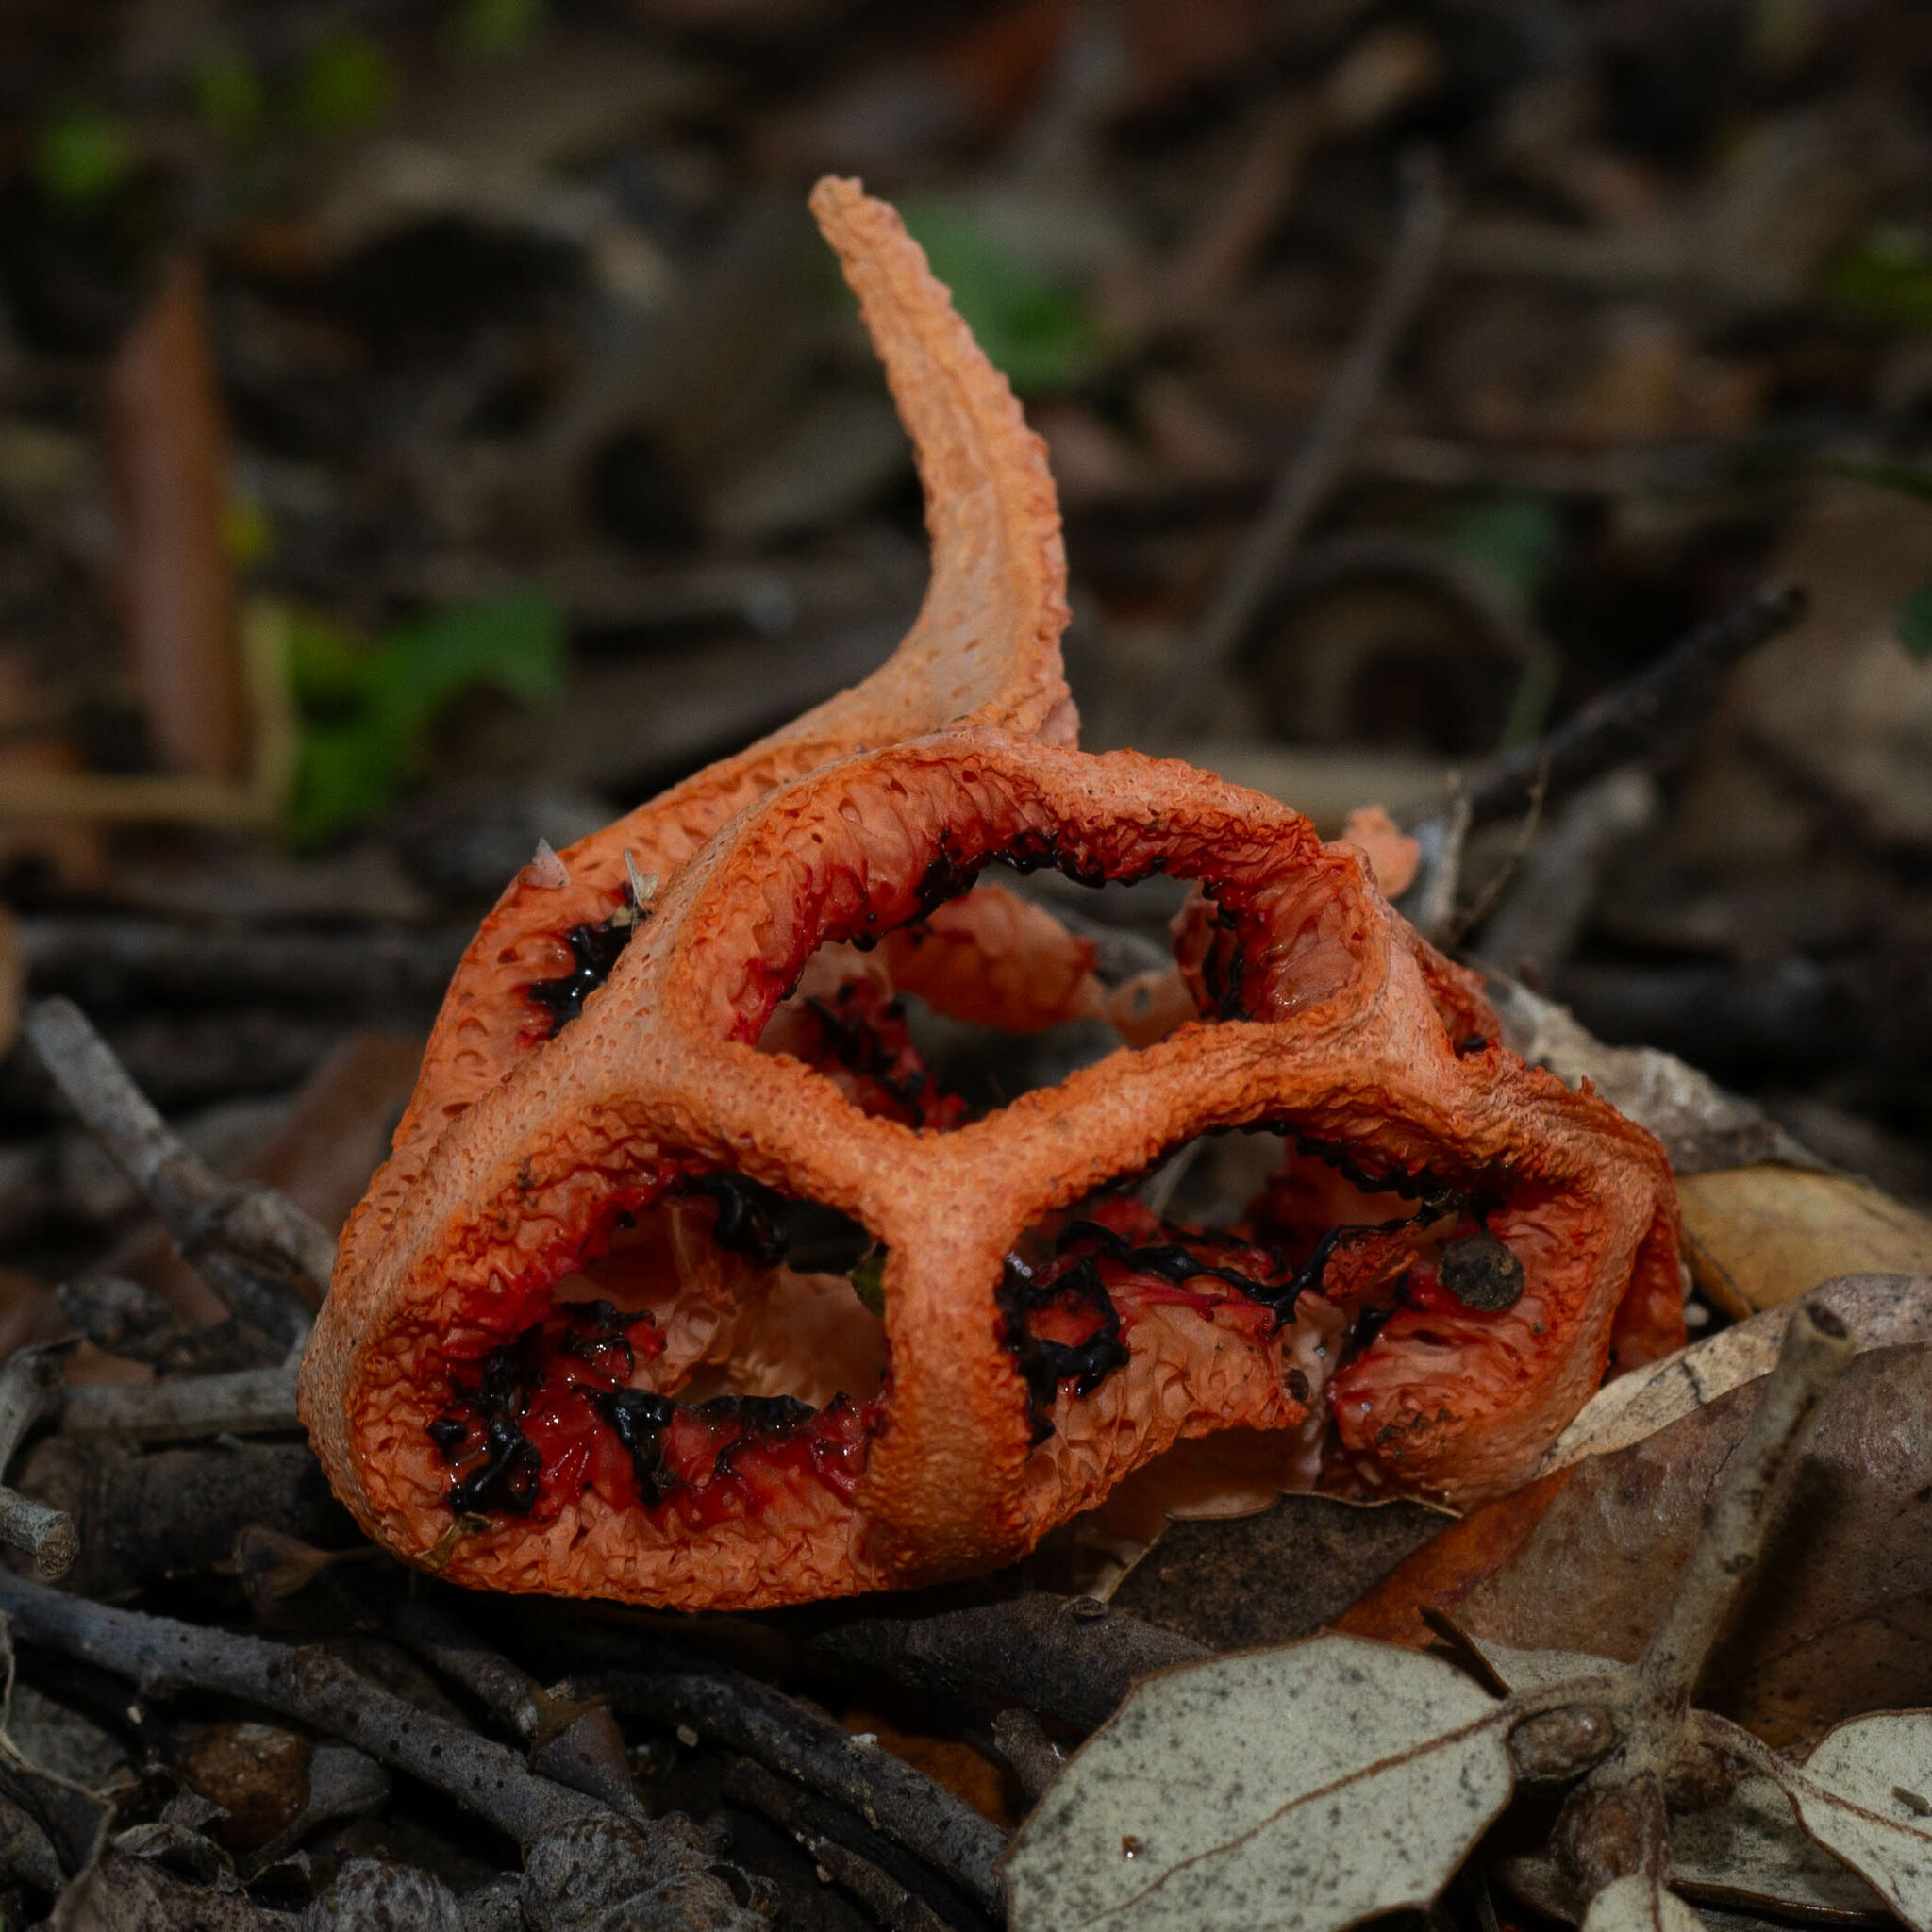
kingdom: Fungi
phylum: Basidiomycota
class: Agaricomycetes
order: Phallales
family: Phallaceae
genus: Clathrus
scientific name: Clathrus ruber
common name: Red cage
